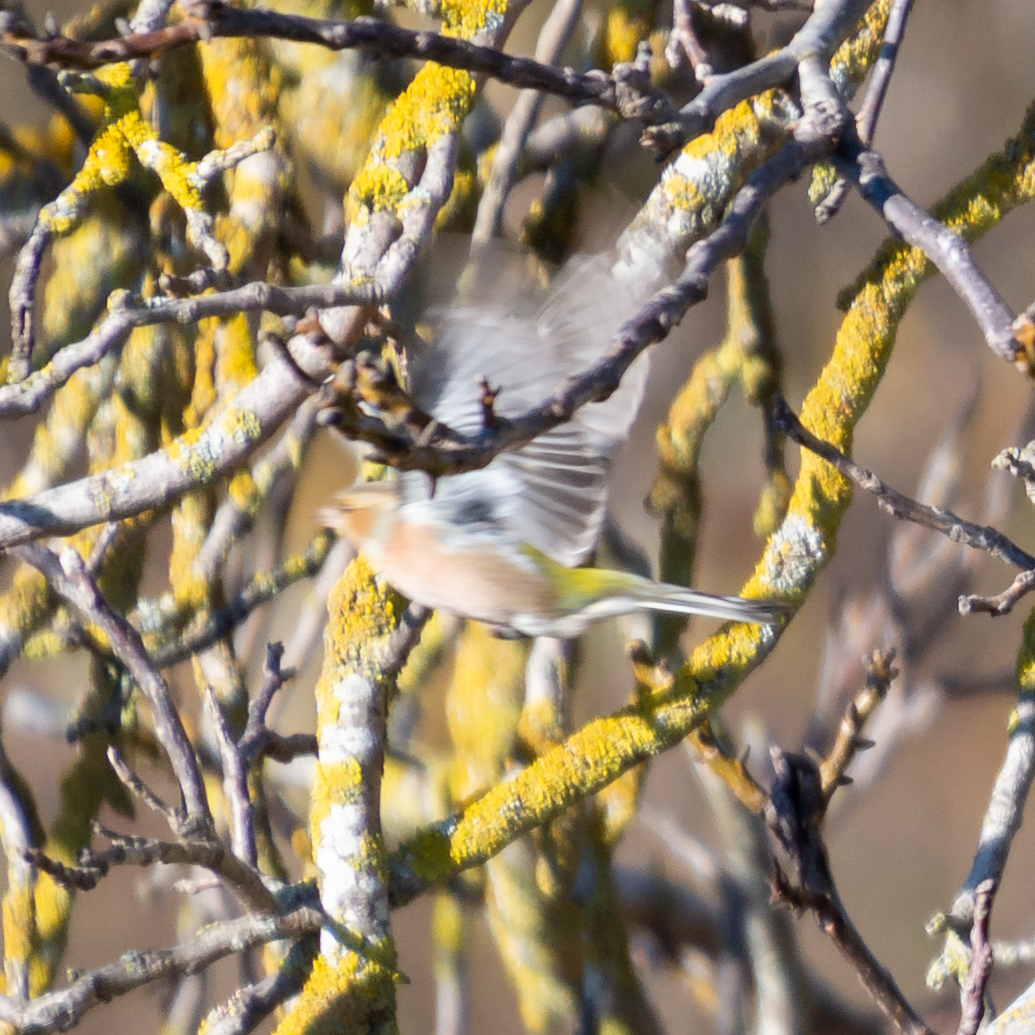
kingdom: Animalia
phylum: Chordata
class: Aves
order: Passeriformes
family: Fringillidae
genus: Fringilla
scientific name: Fringilla coelebs
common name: Common chaffinch
